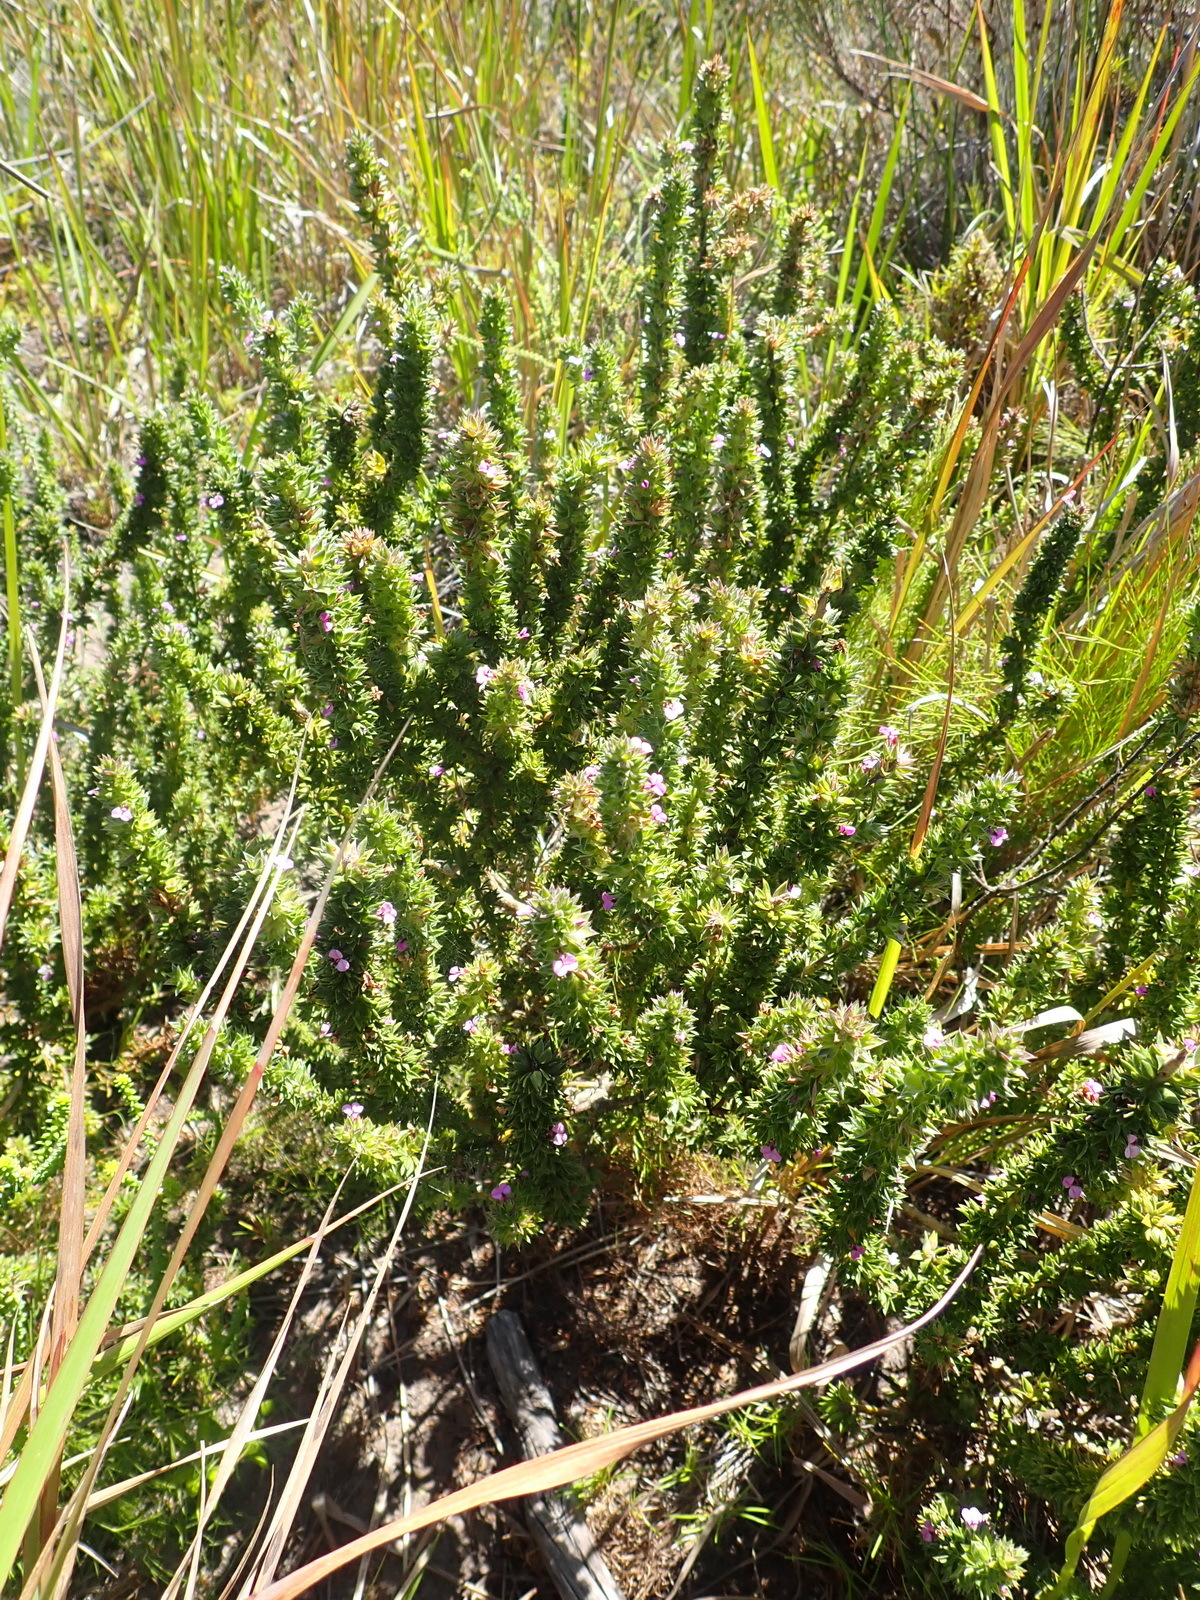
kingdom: Plantae
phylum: Tracheophyta
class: Magnoliopsida
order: Fabales
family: Polygalaceae
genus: Muraltia
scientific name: Muraltia squarrosa
